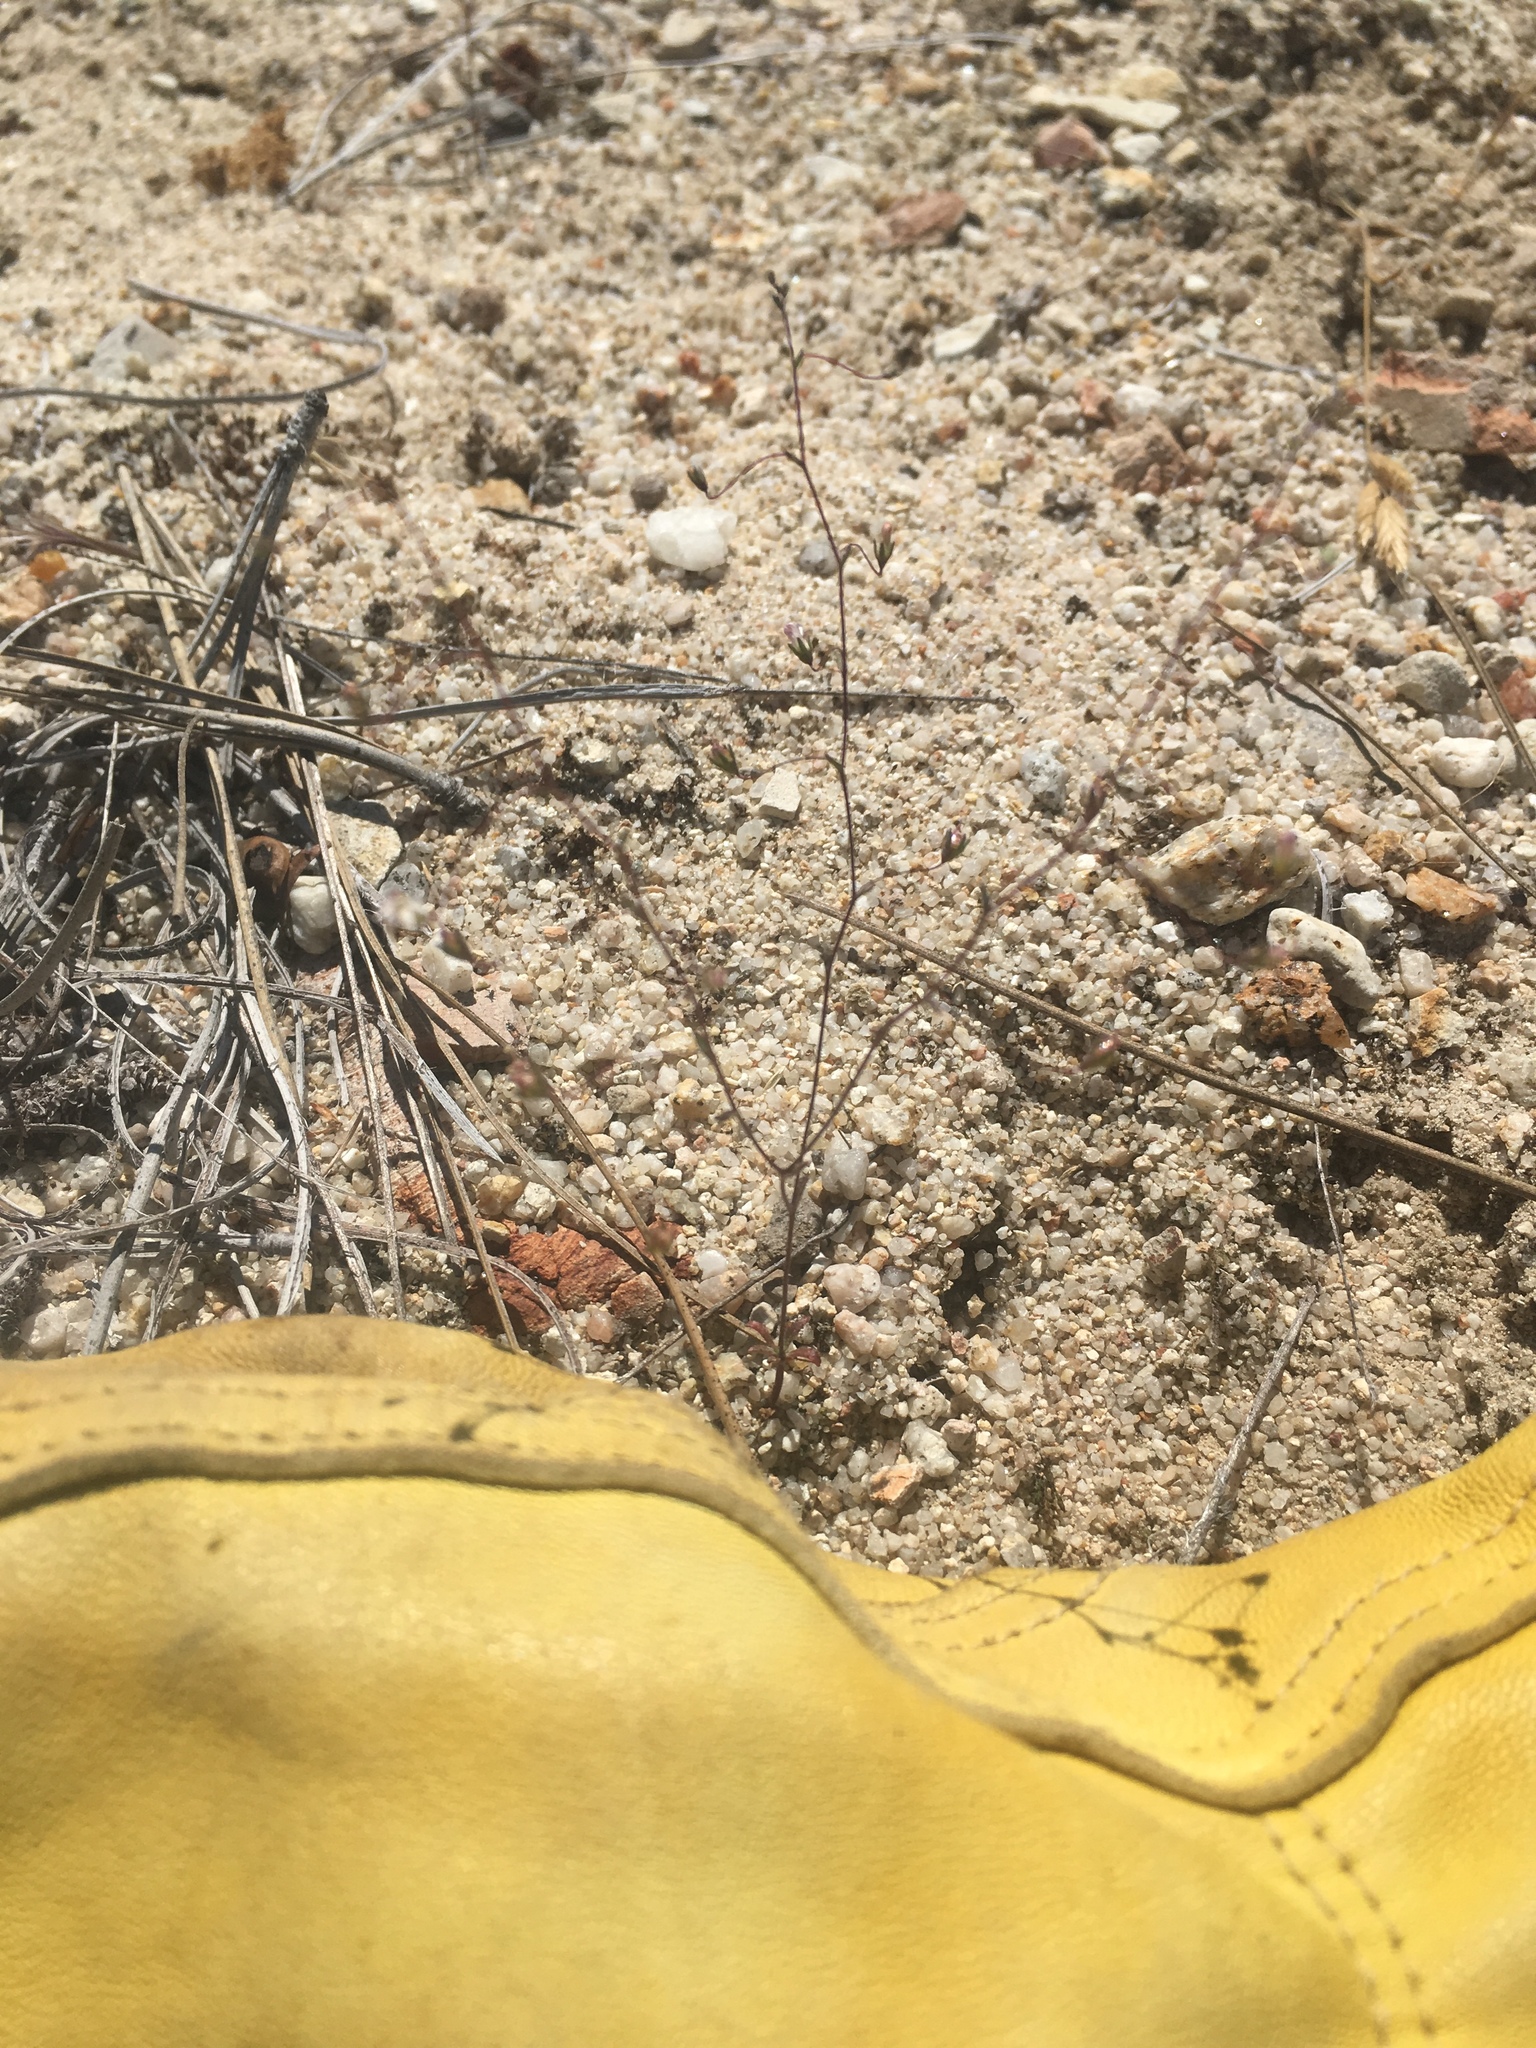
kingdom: Plantae
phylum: Tracheophyta
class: Magnoliopsida
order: Asterales
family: Campanulaceae
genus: Nemacladus
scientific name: Nemacladus secundiflorus
